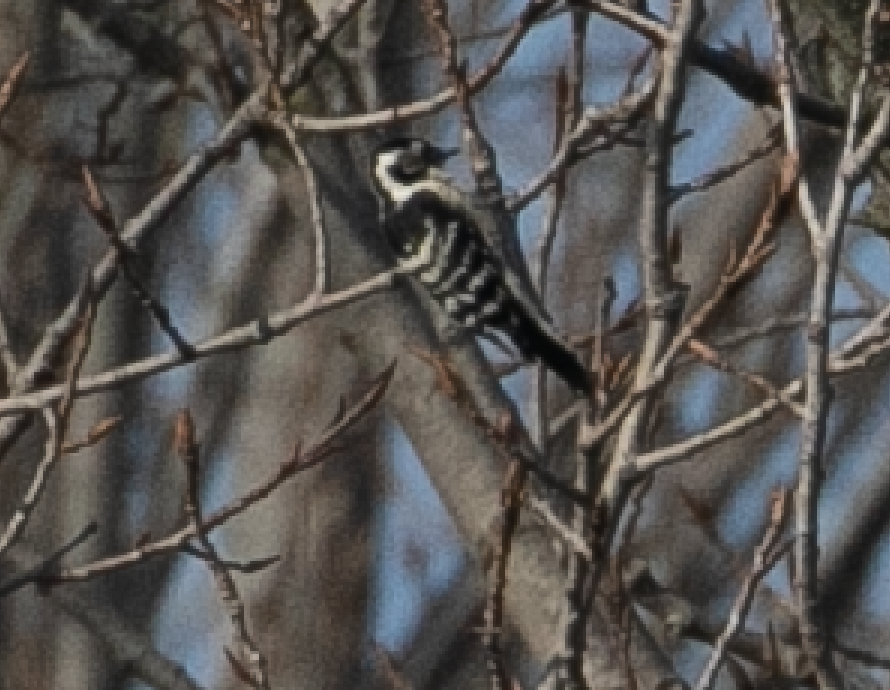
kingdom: Animalia
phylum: Chordata
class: Aves
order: Piciformes
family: Picidae
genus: Dryobates
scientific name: Dryobates minor
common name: Lesser spotted woodpecker
